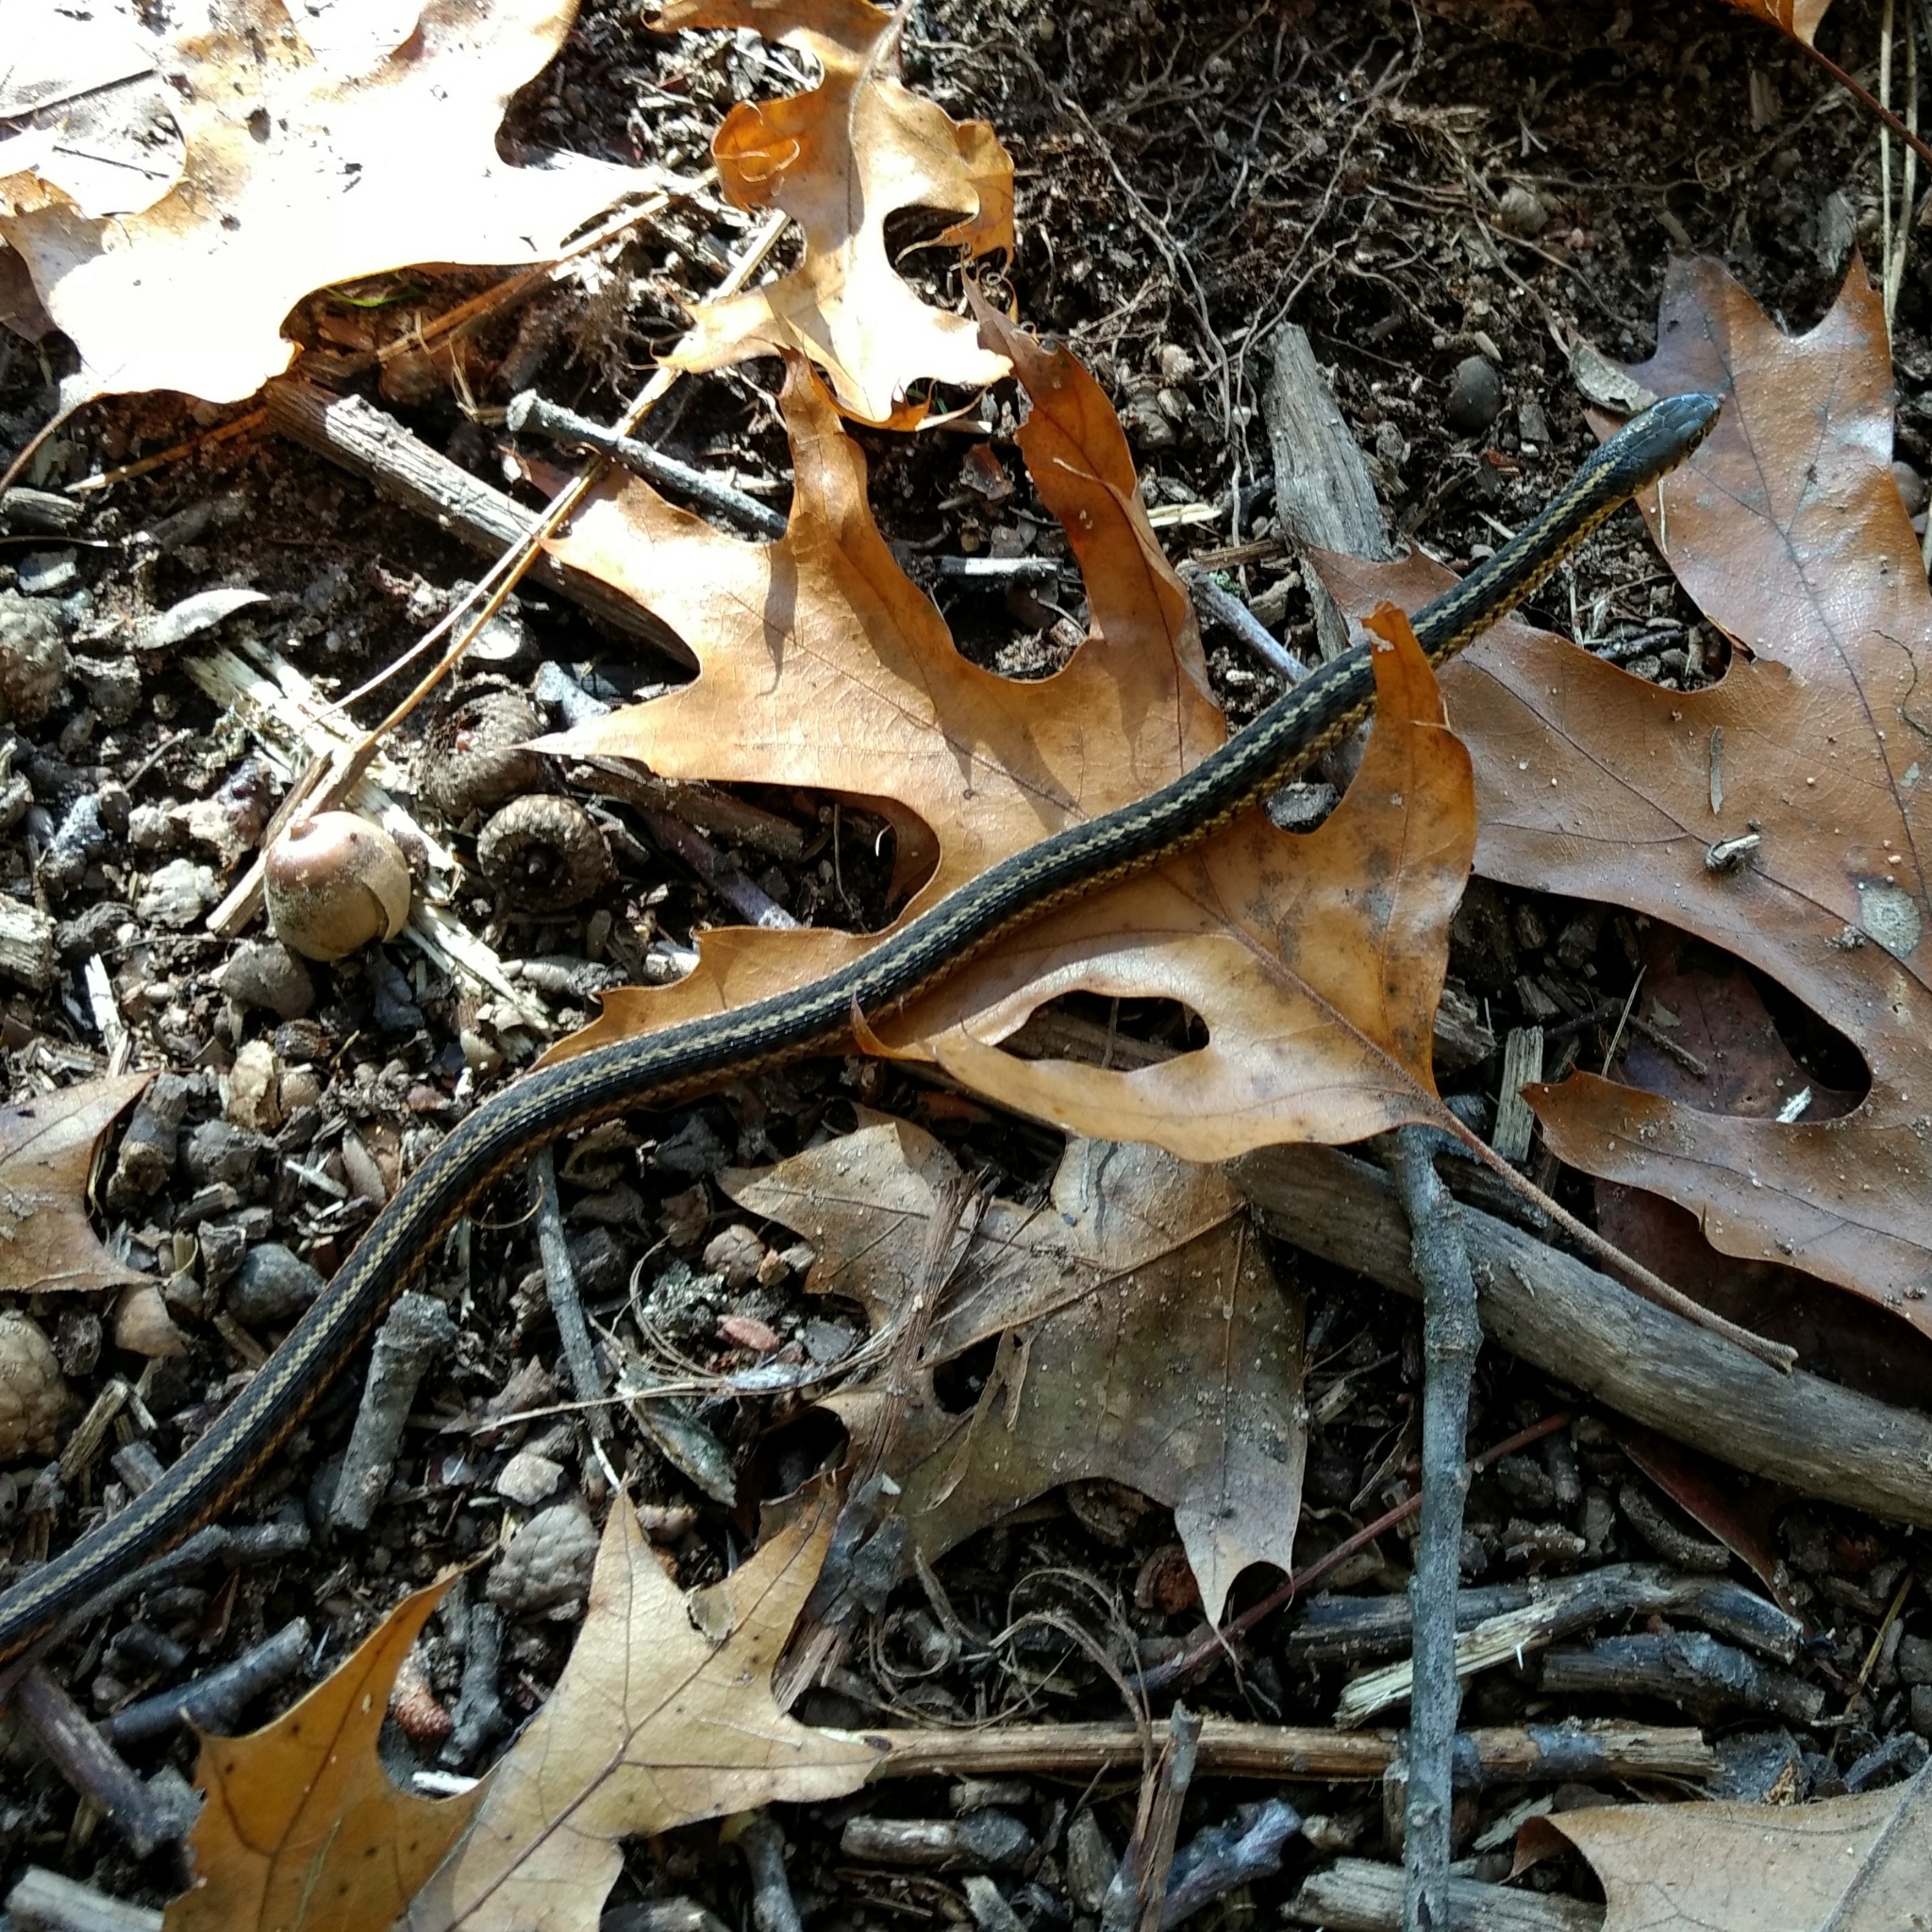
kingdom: Animalia
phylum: Chordata
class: Squamata
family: Colubridae
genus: Thamnophis
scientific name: Thamnophis sirtalis
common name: Common garter snake
